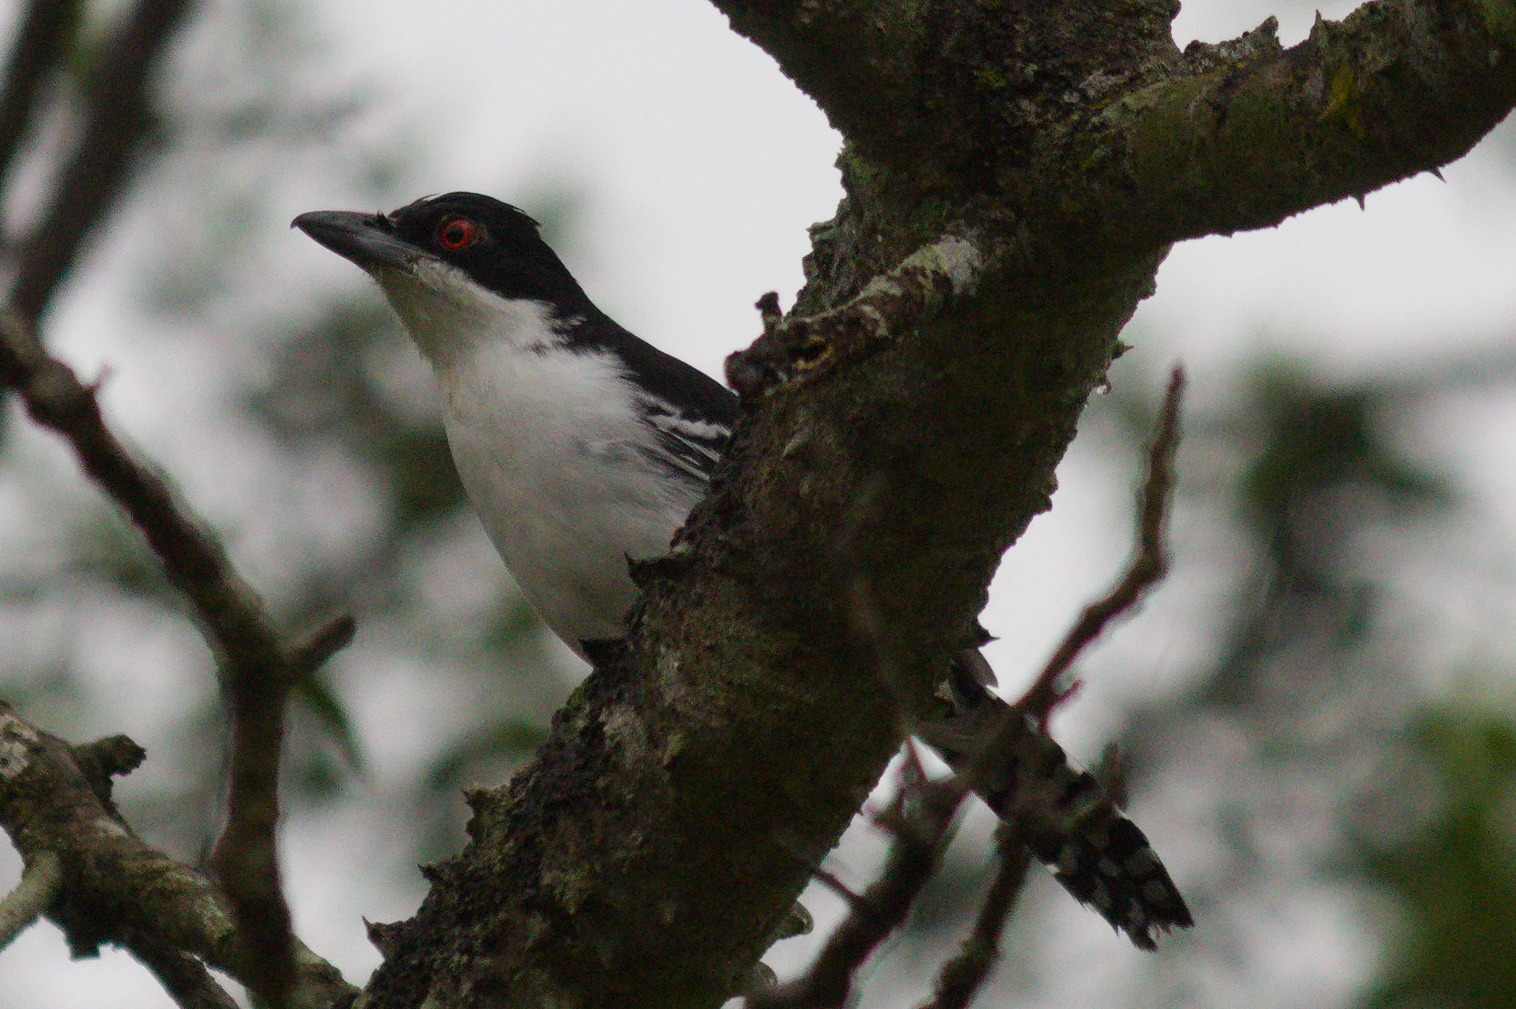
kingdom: Animalia
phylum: Chordata
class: Aves
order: Passeriformes
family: Thamnophilidae
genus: Taraba
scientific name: Taraba major
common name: Great antshrike
